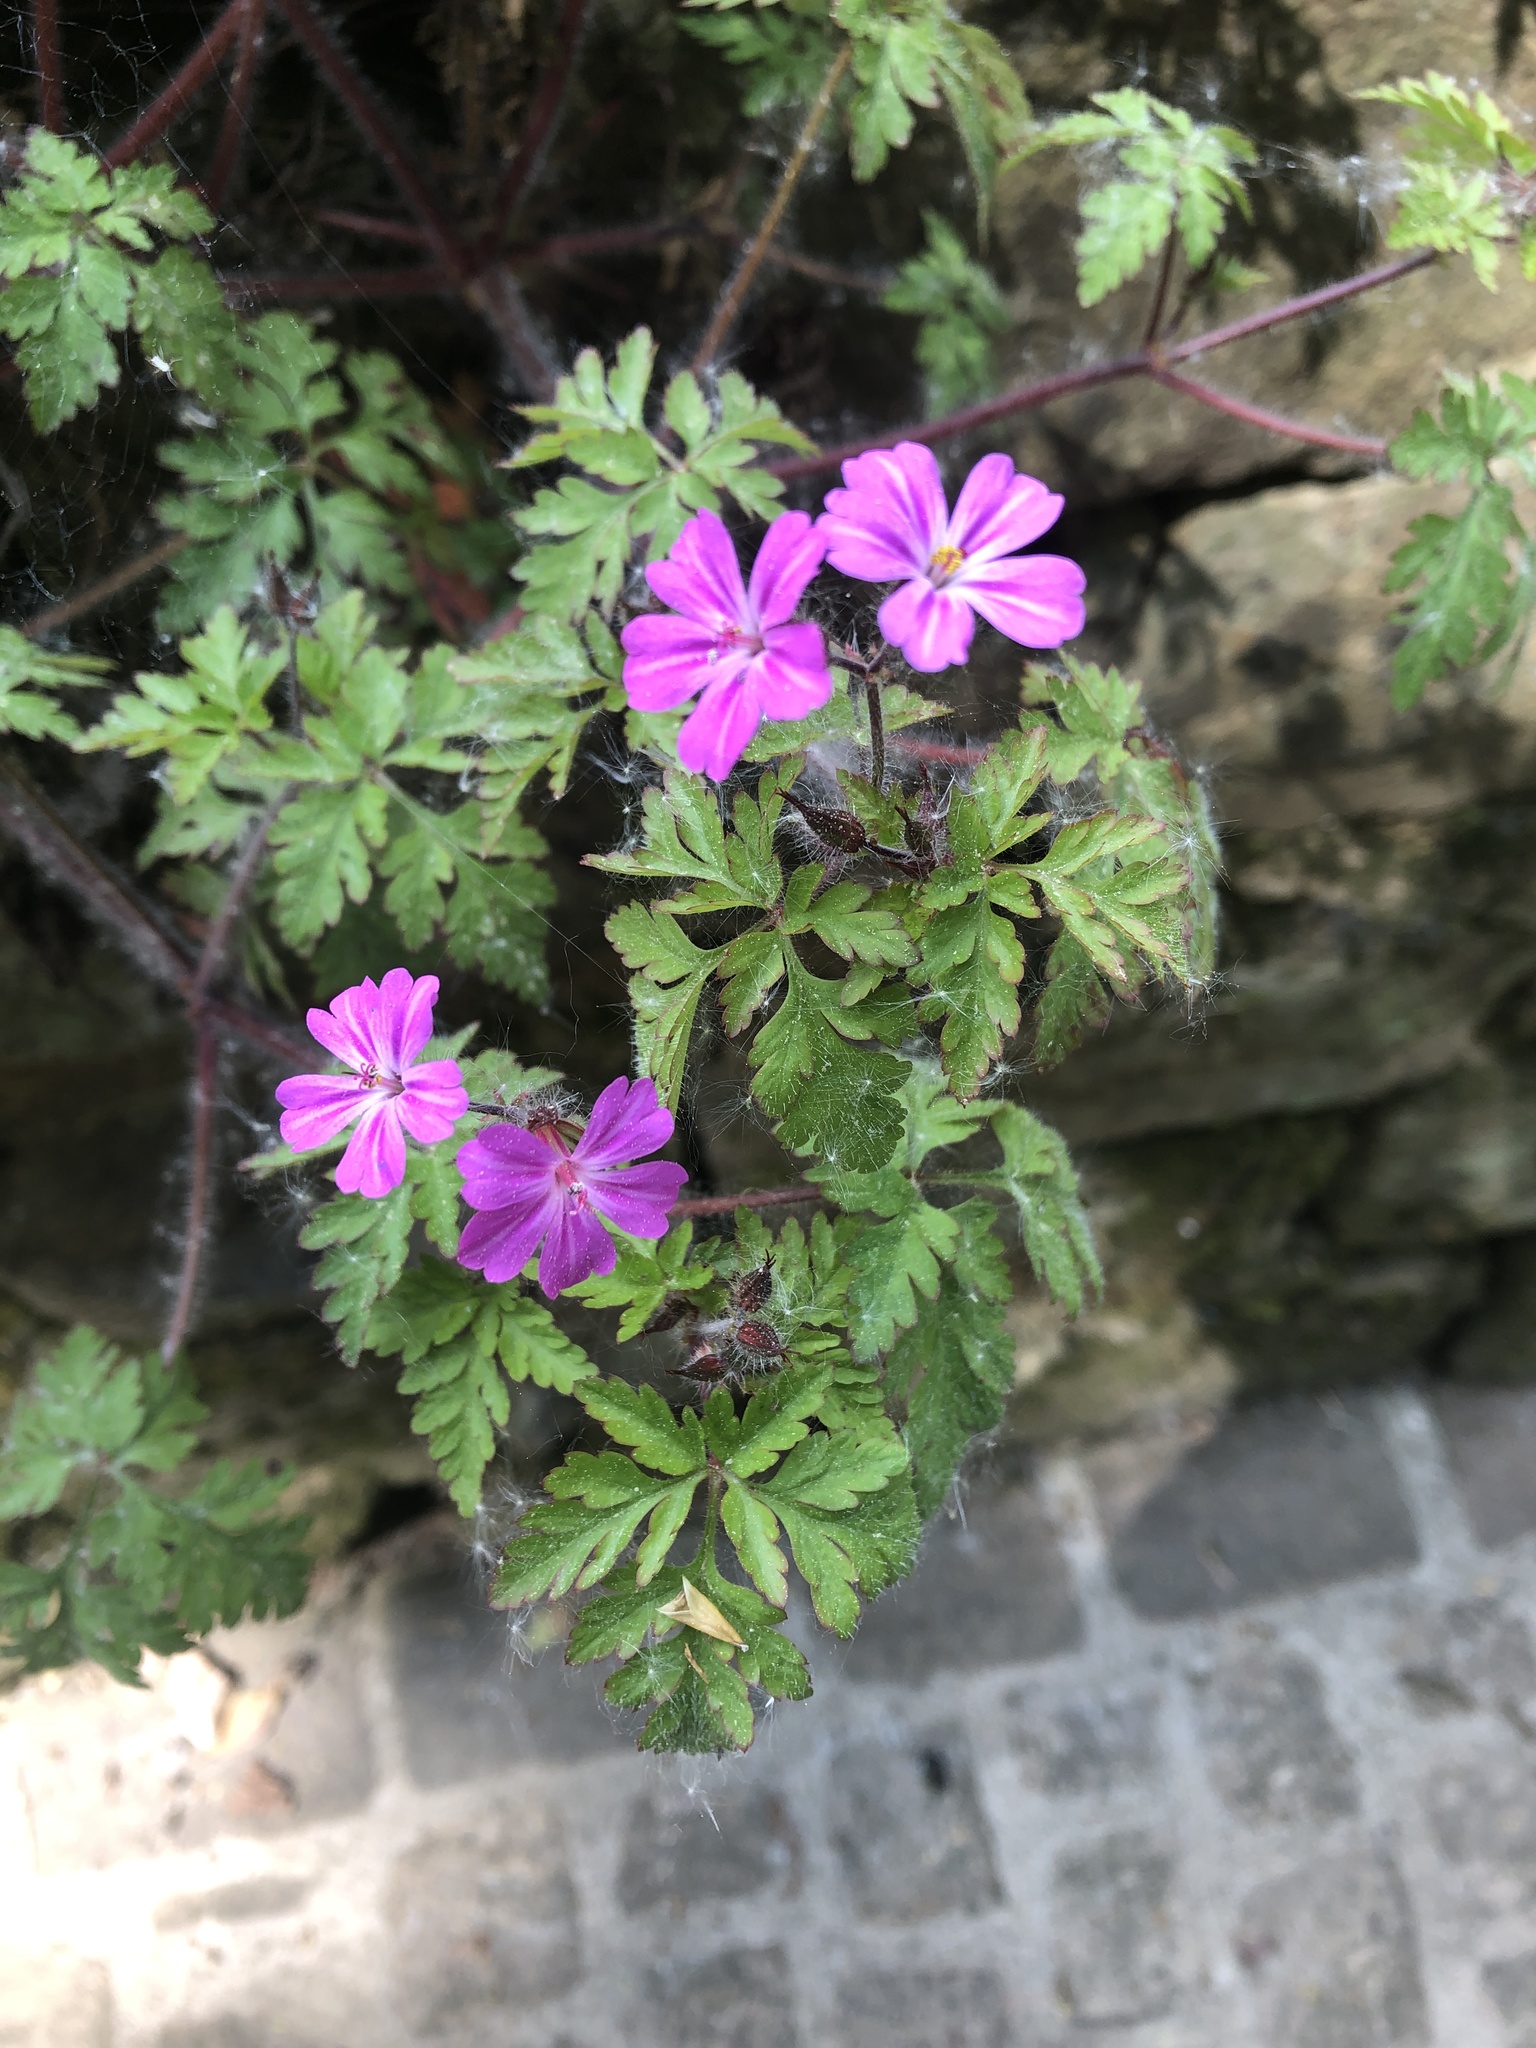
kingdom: Plantae
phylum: Tracheophyta
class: Magnoliopsida
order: Geraniales
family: Geraniaceae
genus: Geranium
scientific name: Geranium robertianum
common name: Herb-robert
